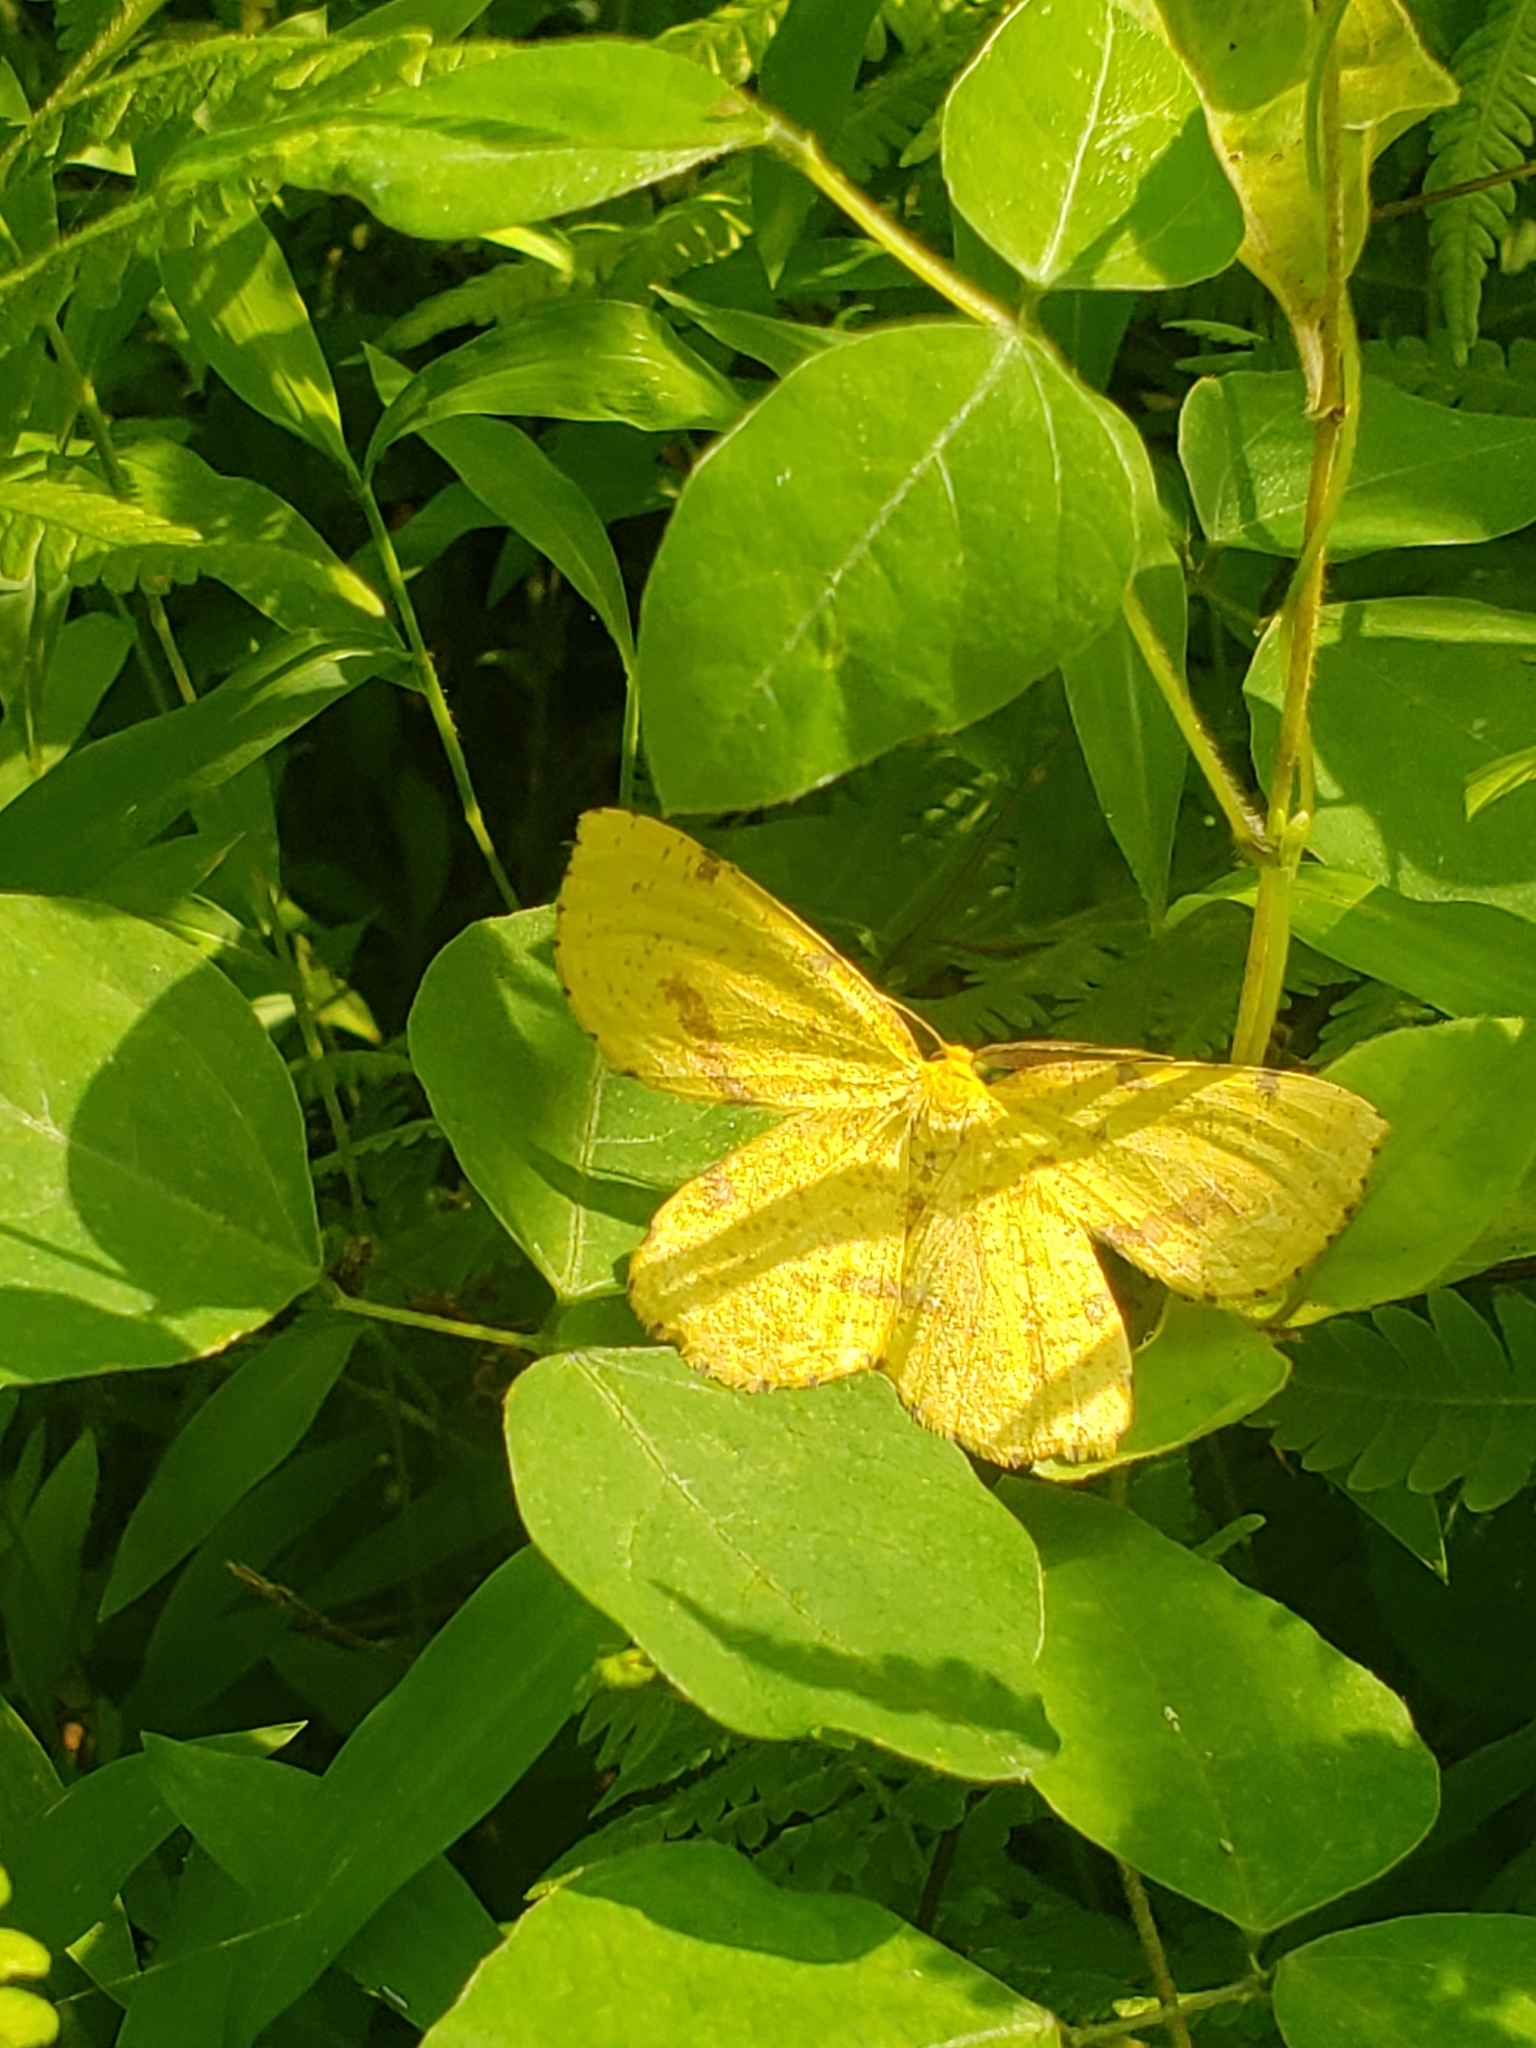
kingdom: Animalia
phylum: Arthropoda
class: Insecta
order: Lepidoptera
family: Geometridae
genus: Xanthotype
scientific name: Xanthotype
